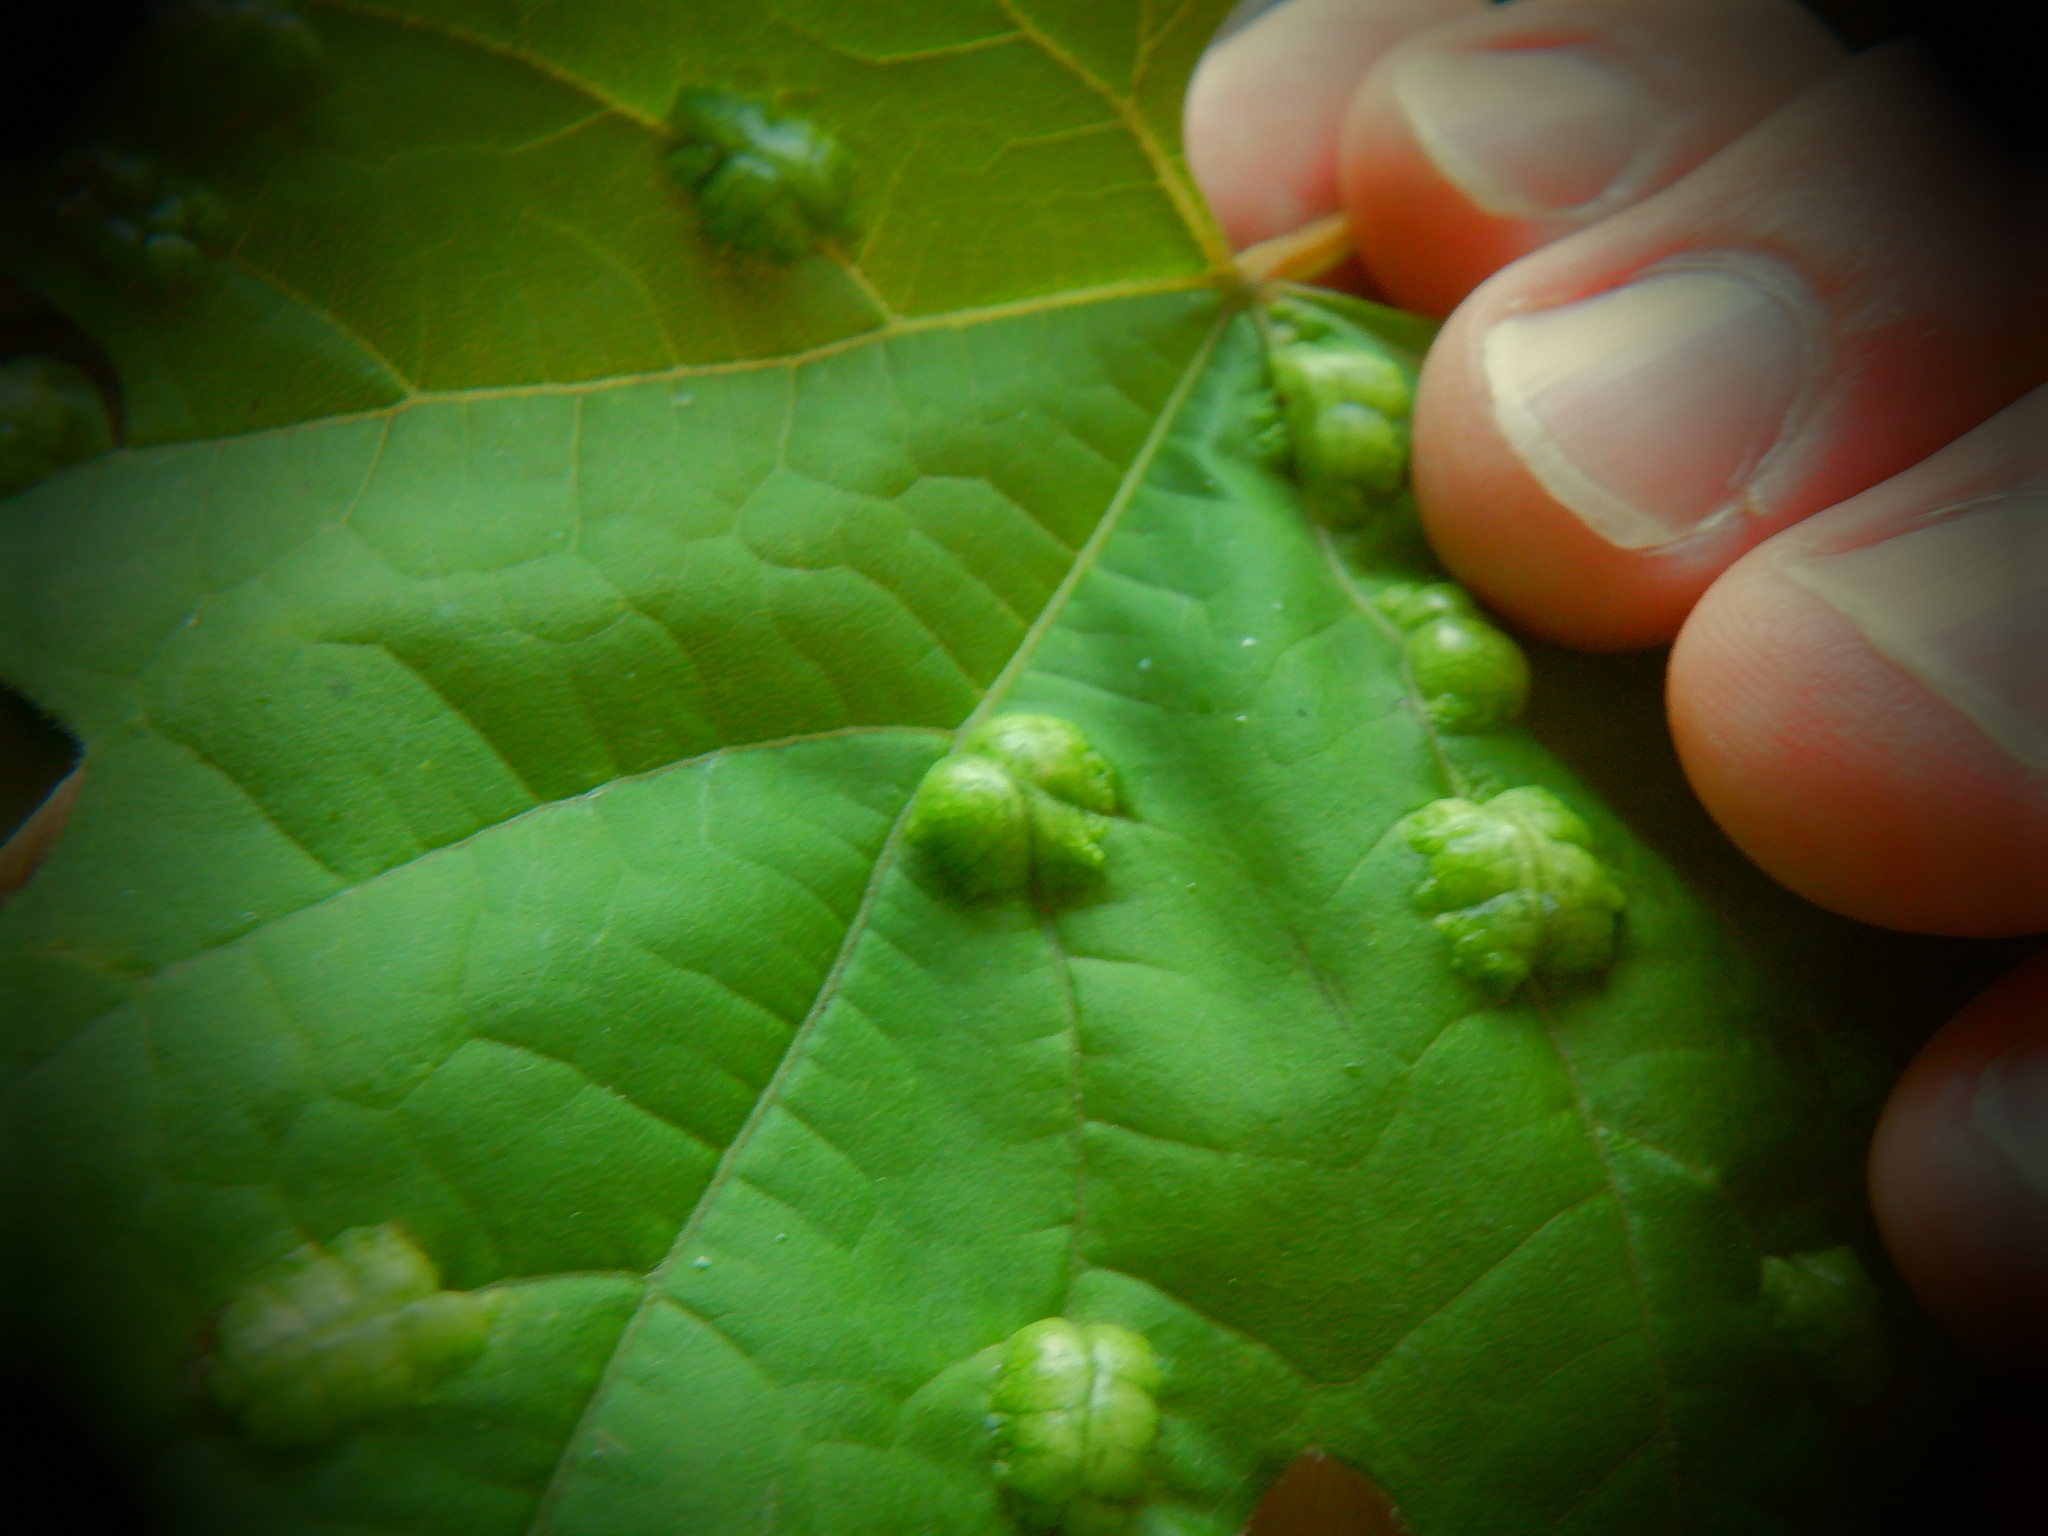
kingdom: Animalia
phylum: Arthropoda
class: Insecta
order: Lepidoptera
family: Heliozelidae
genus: Heliozela
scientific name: Heliozela aesella
